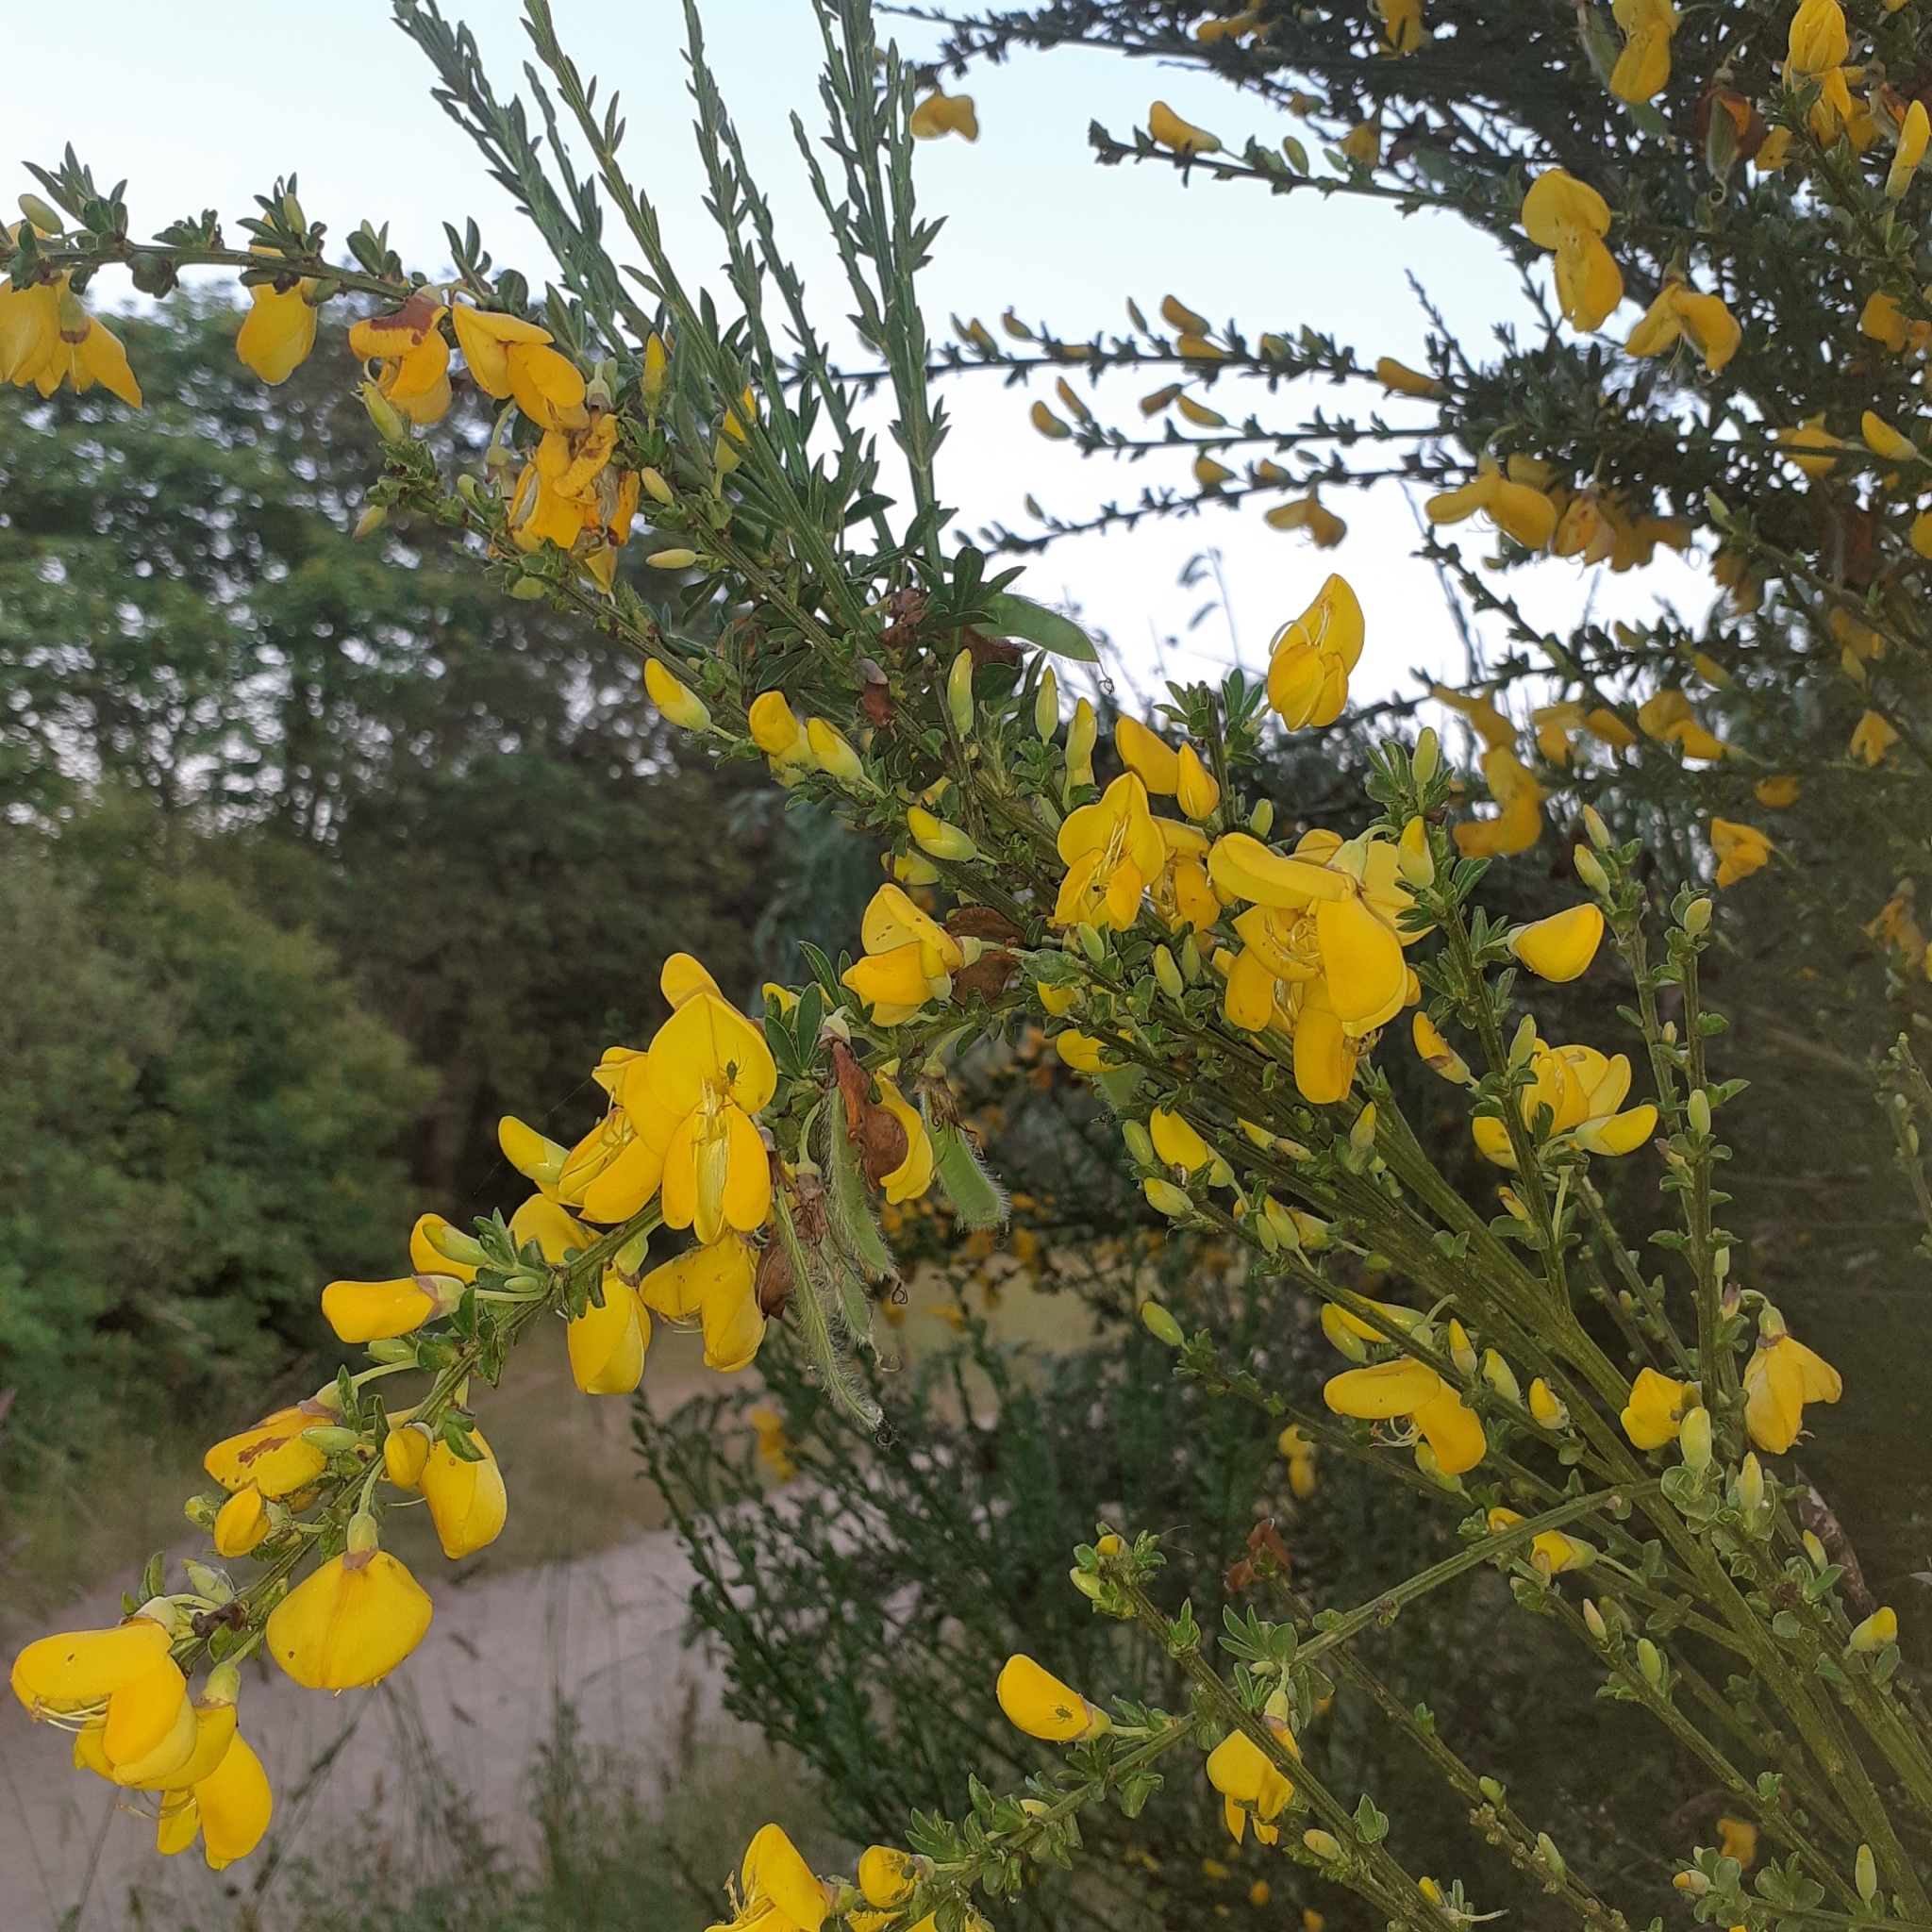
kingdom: Plantae
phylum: Tracheophyta
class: Magnoliopsida
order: Fabales
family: Fabaceae
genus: Cytisus
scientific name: Cytisus scoparius
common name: Scotch broom
